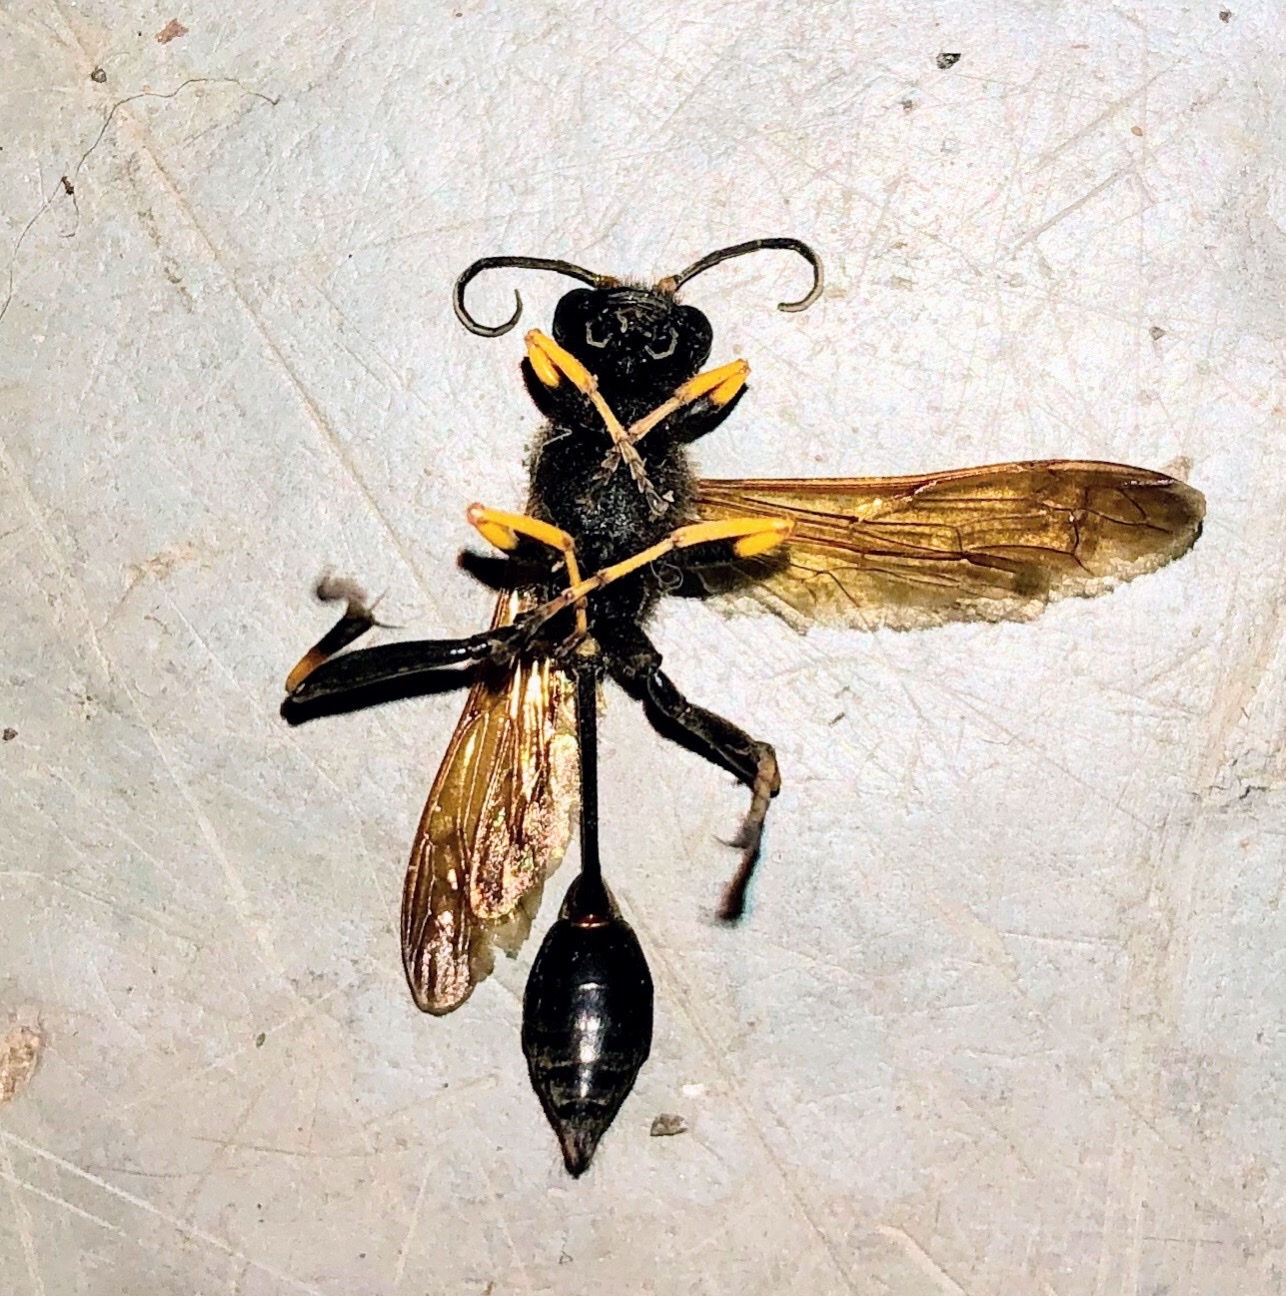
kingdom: Animalia
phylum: Arthropoda
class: Insecta
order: Hymenoptera
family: Sphecidae
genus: Sceliphron
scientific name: Sceliphron caementarium
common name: Mud dauber
